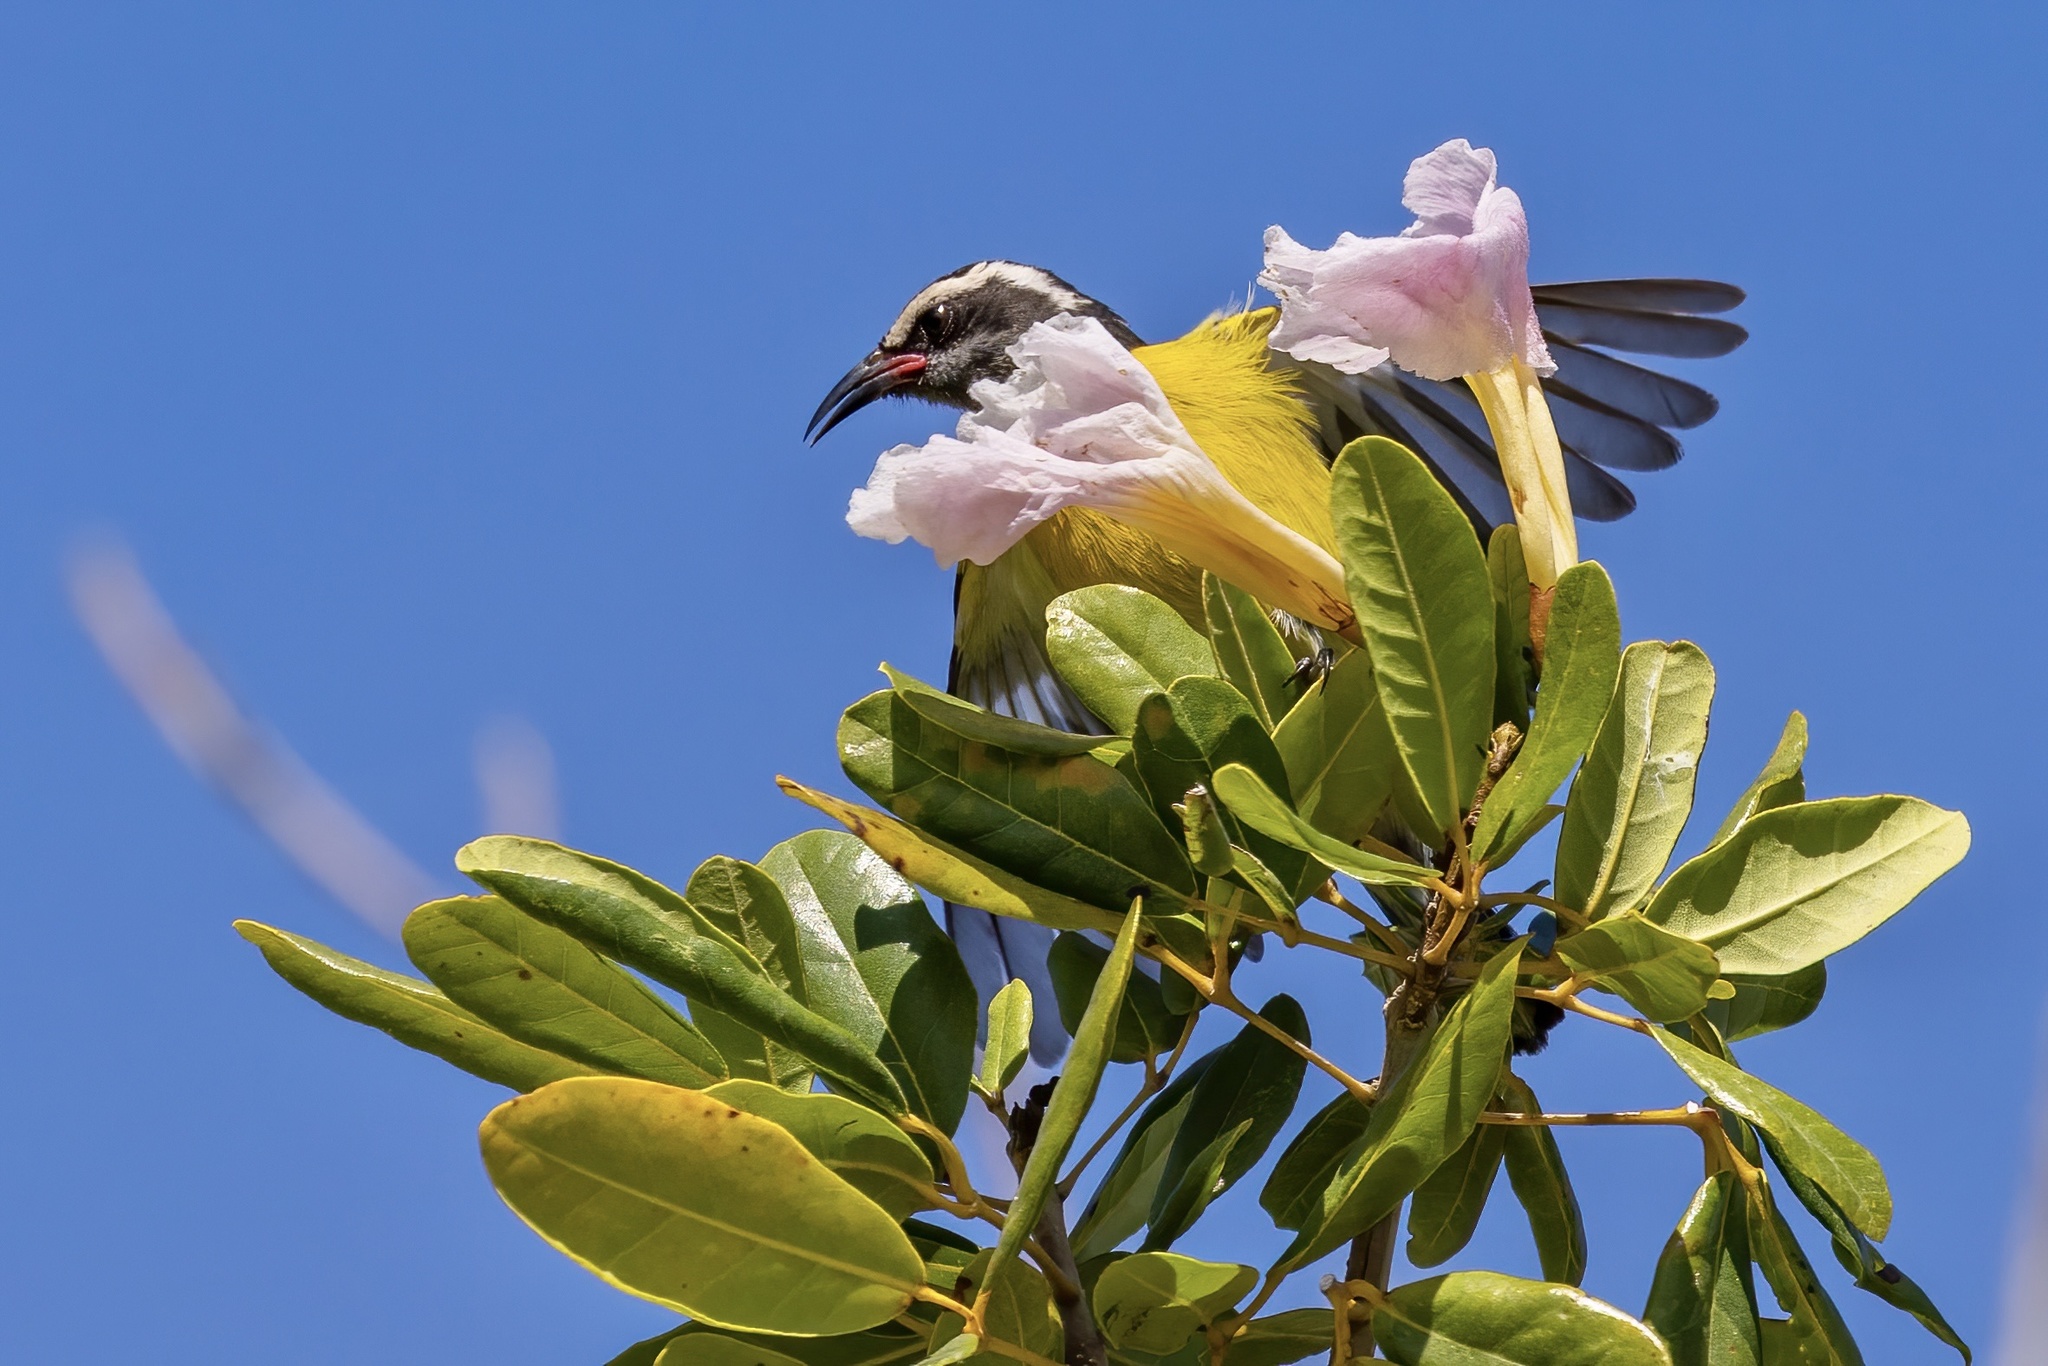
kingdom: Animalia
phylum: Chordata
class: Aves
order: Passeriformes
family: Thraupidae
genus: Coereba
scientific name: Coereba flaveola
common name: Bananaquit
